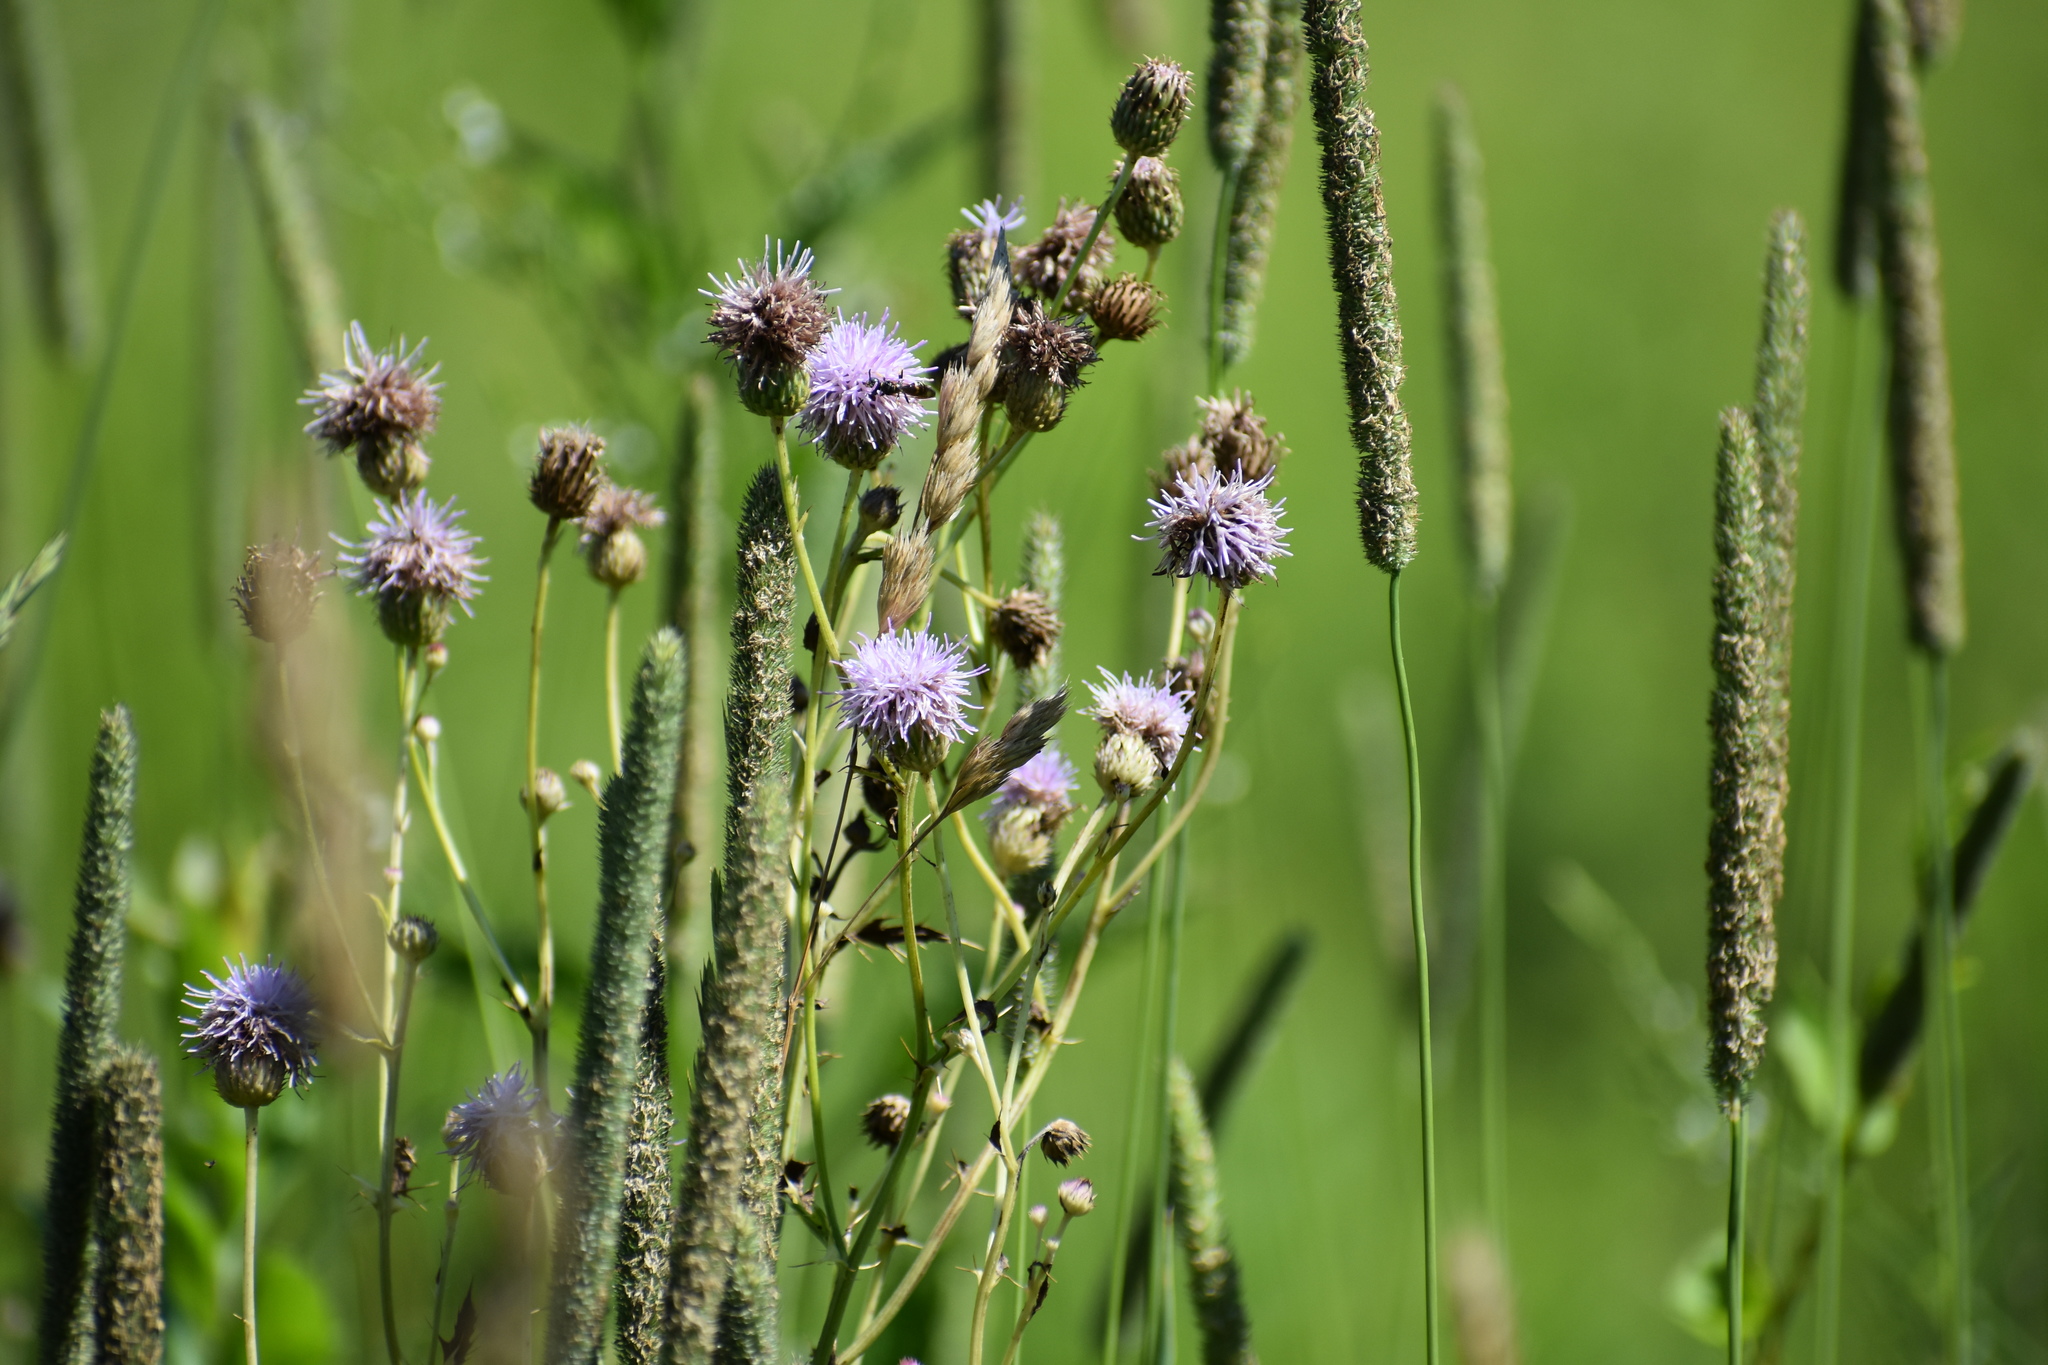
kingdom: Plantae
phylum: Tracheophyta
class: Magnoliopsida
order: Asterales
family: Asteraceae
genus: Cirsium
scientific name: Cirsium arvense
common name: Creeping thistle
